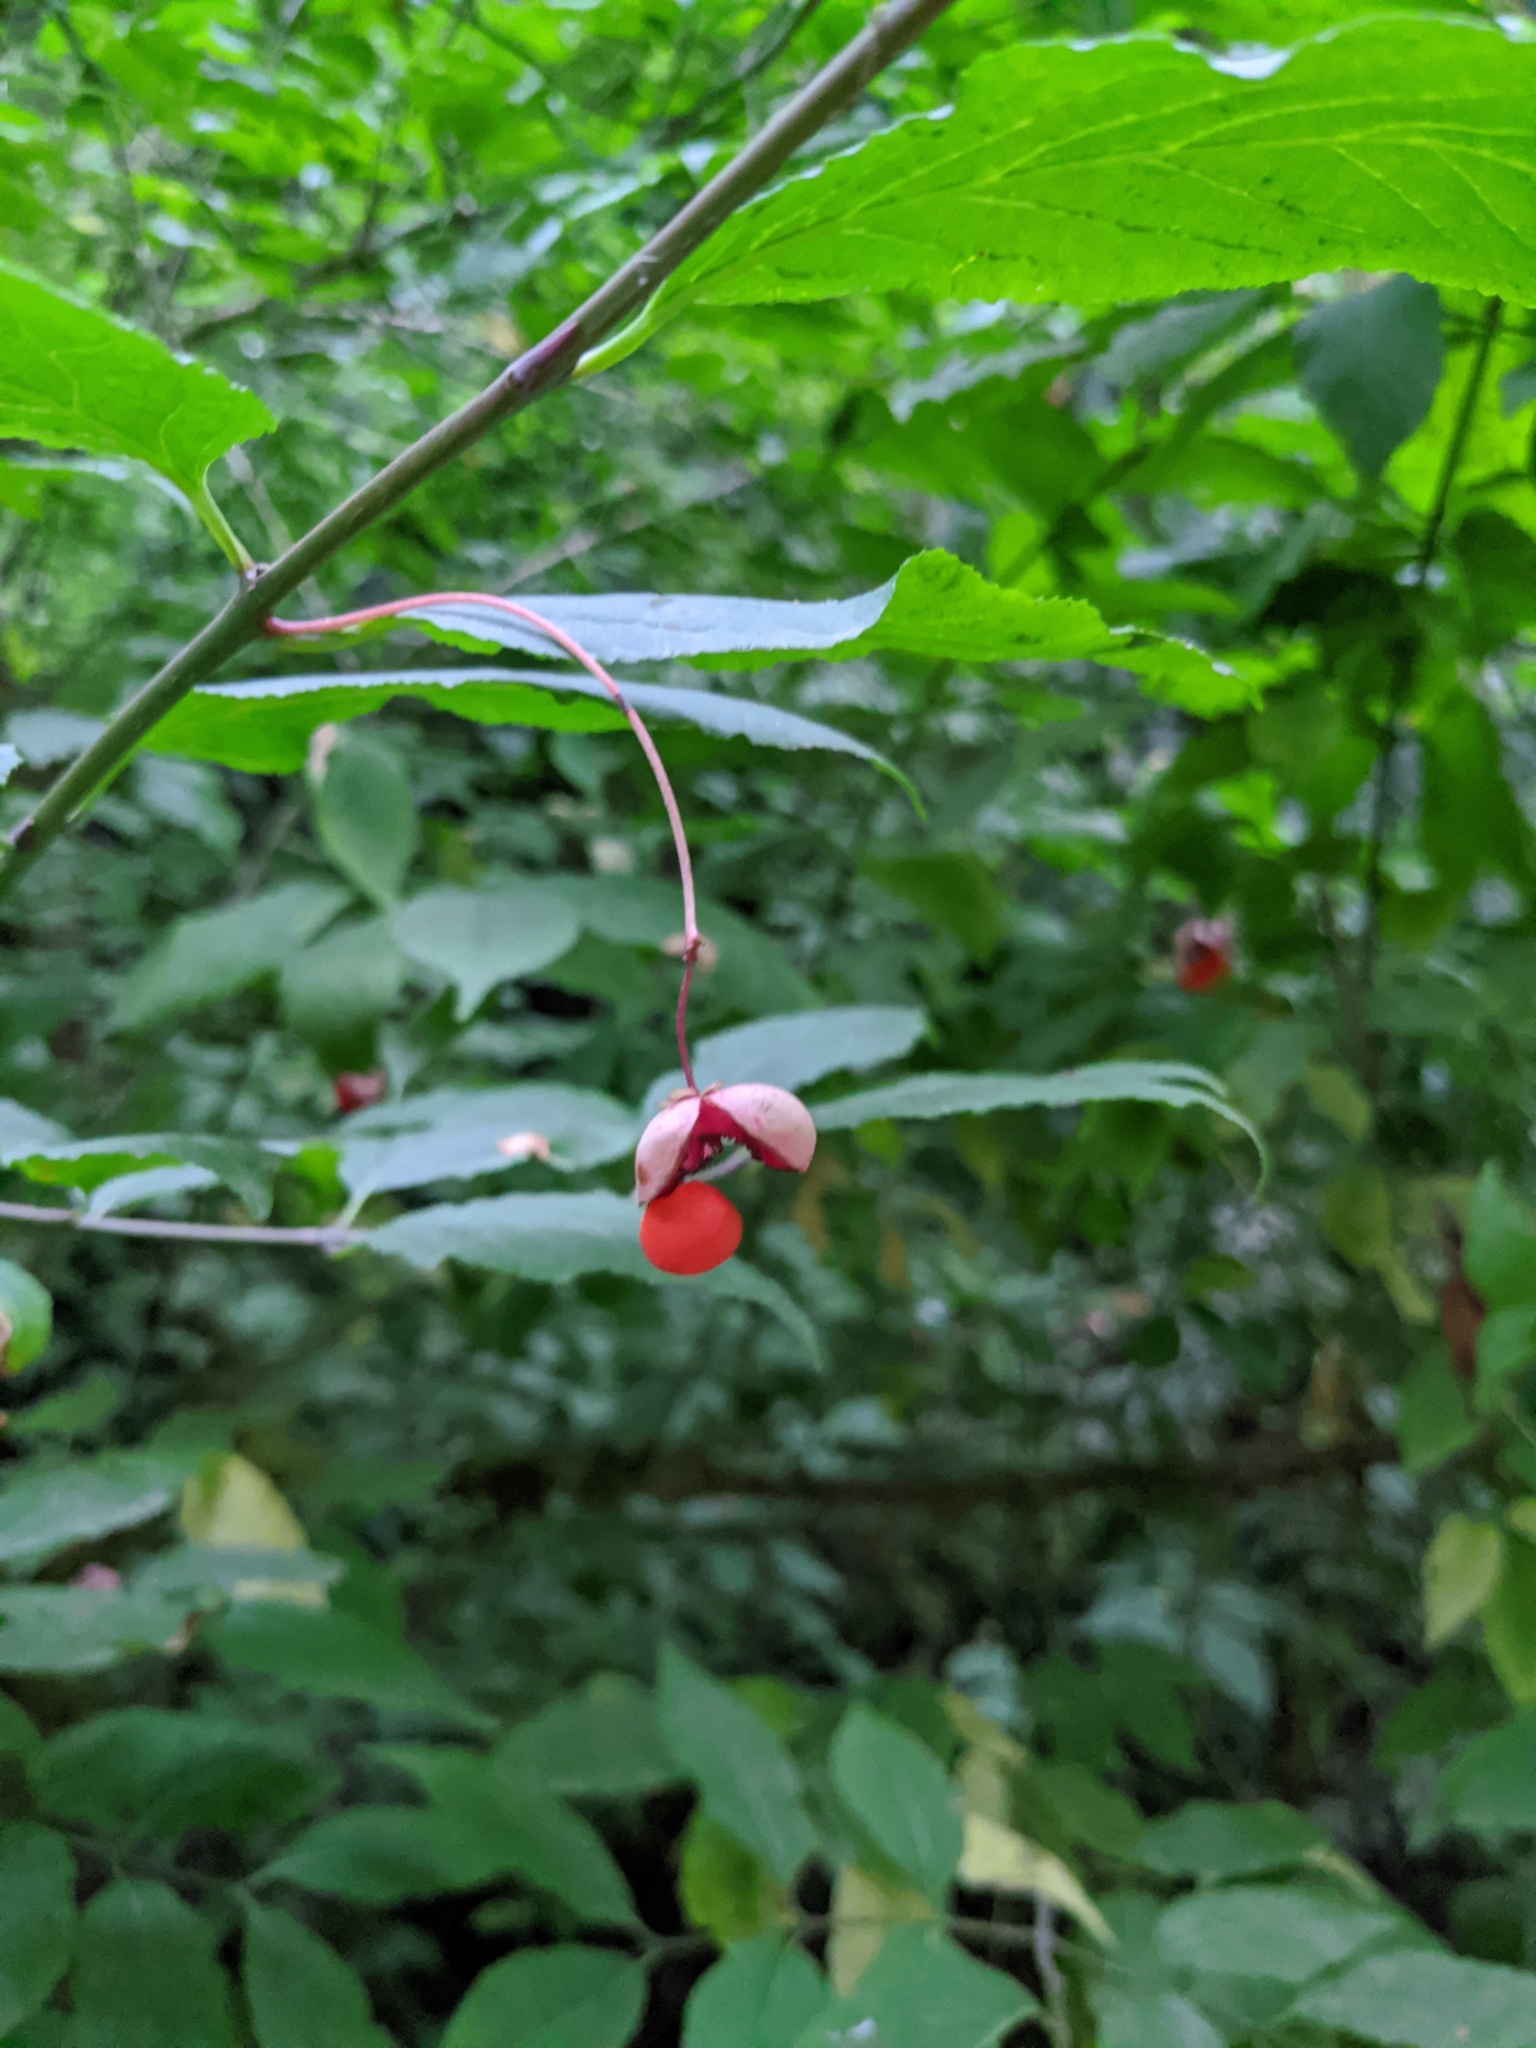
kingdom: Plantae
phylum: Tracheophyta
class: Magnoliopsida
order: Celastrales
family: Celastraceae
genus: Euonymus
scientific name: Euonymus occidentalis
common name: Western burningbush
